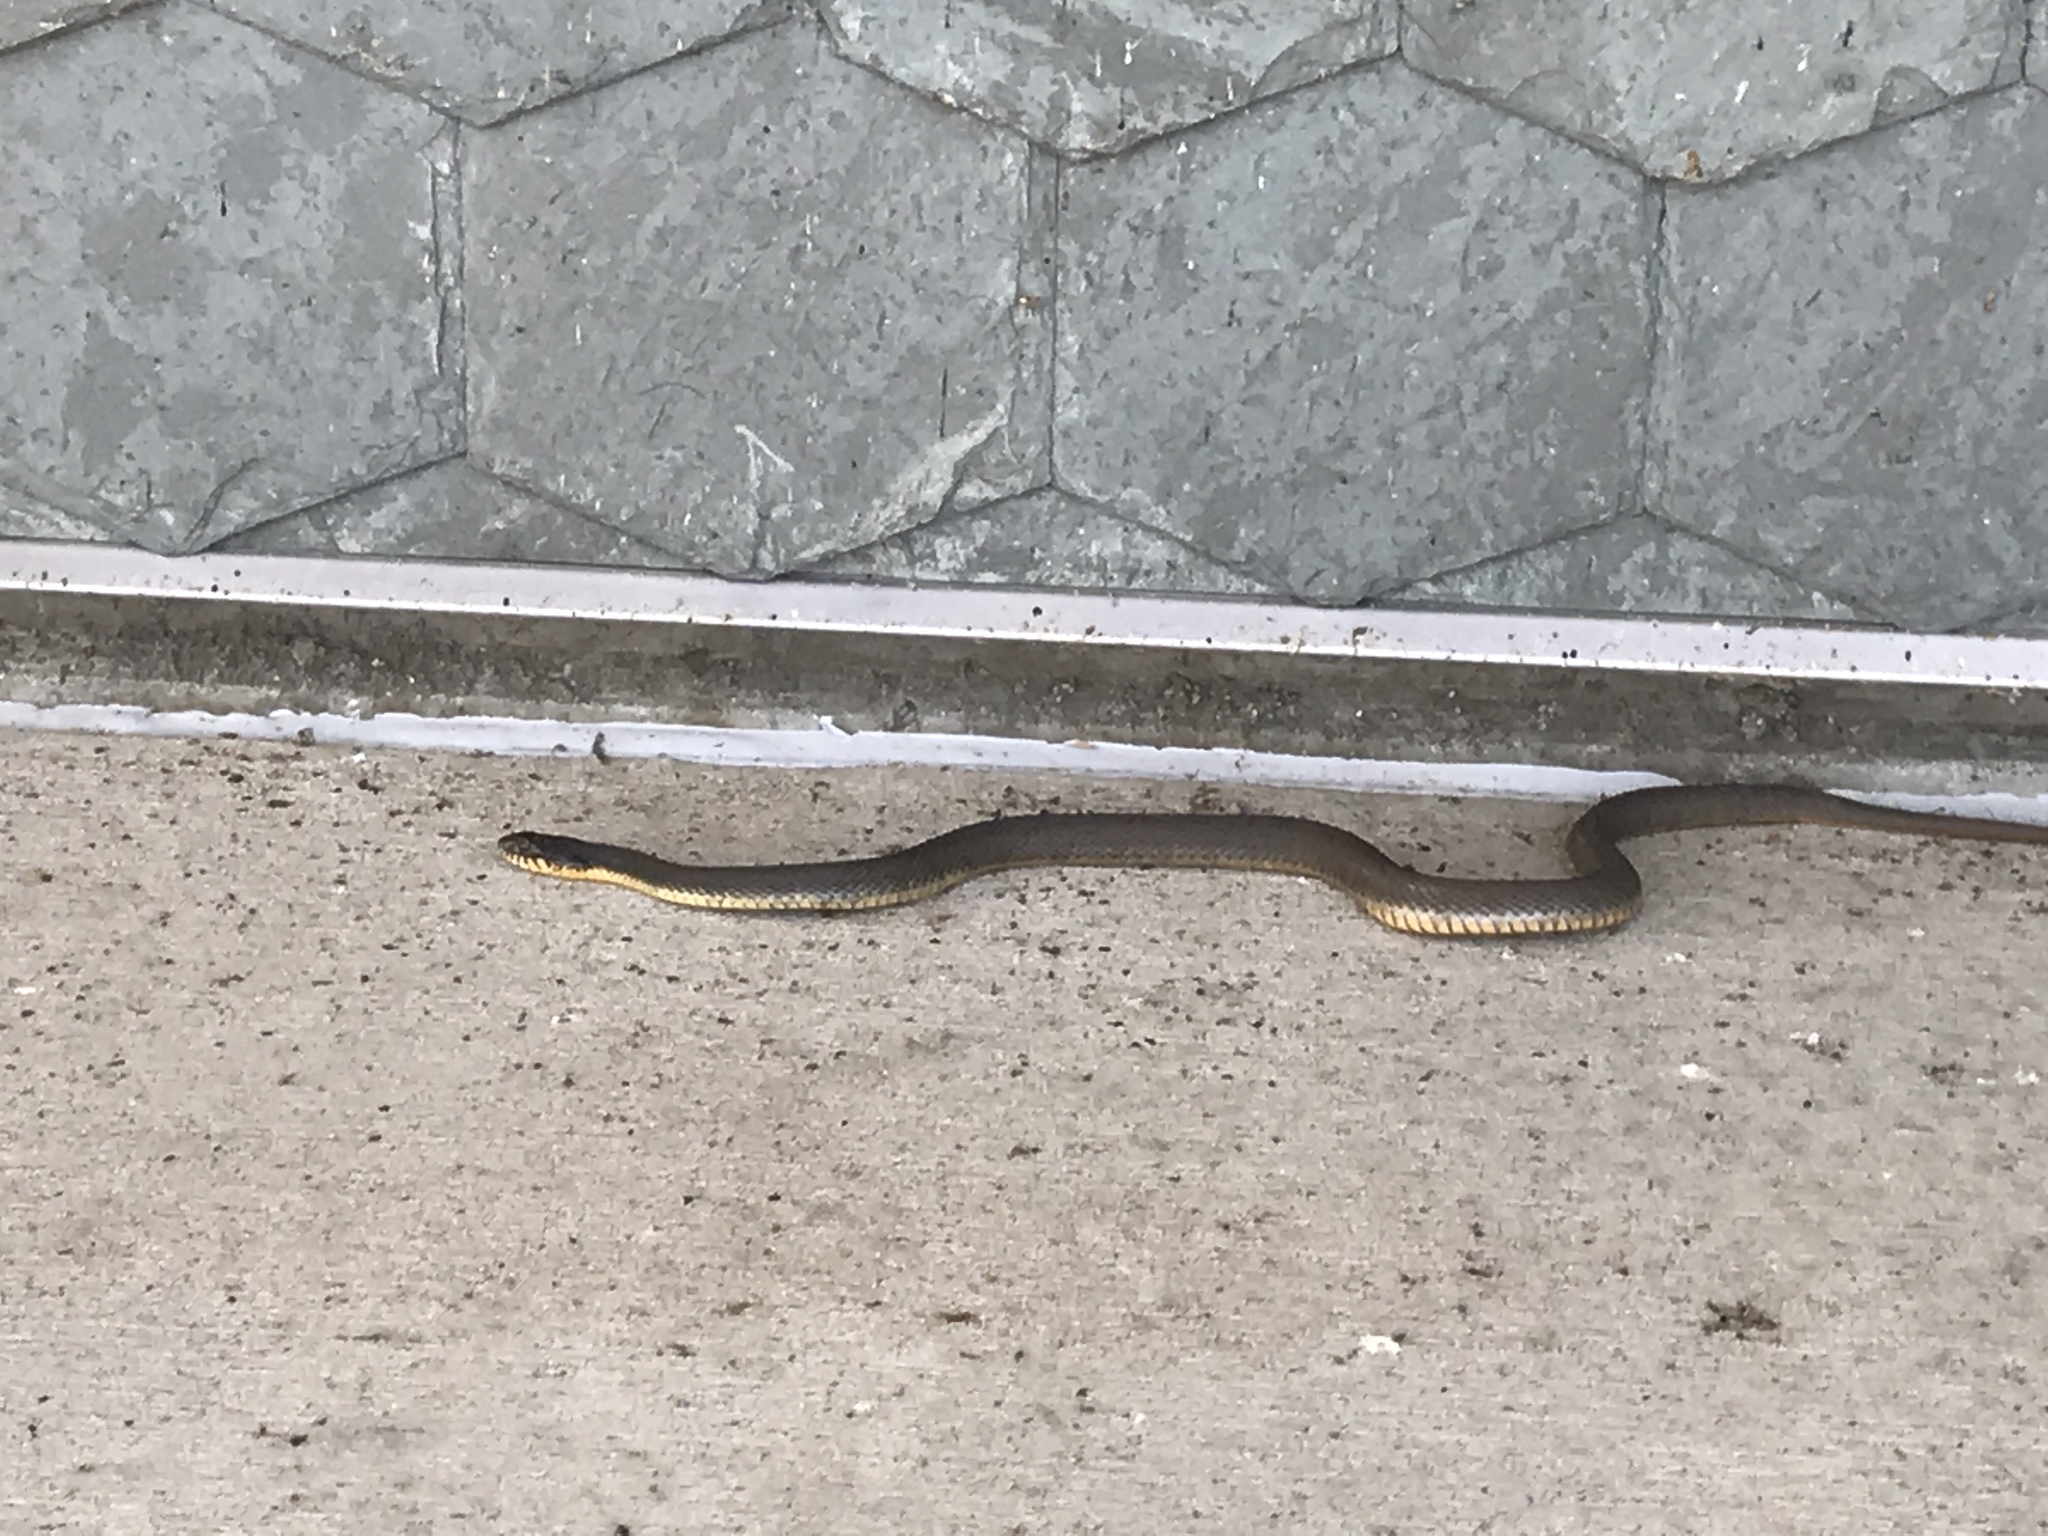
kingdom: Animalia
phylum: Chordata
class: Squamata
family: Colubridae
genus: Nerodia
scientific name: Nerodia erythrogaster
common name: Plainbelly water snake
